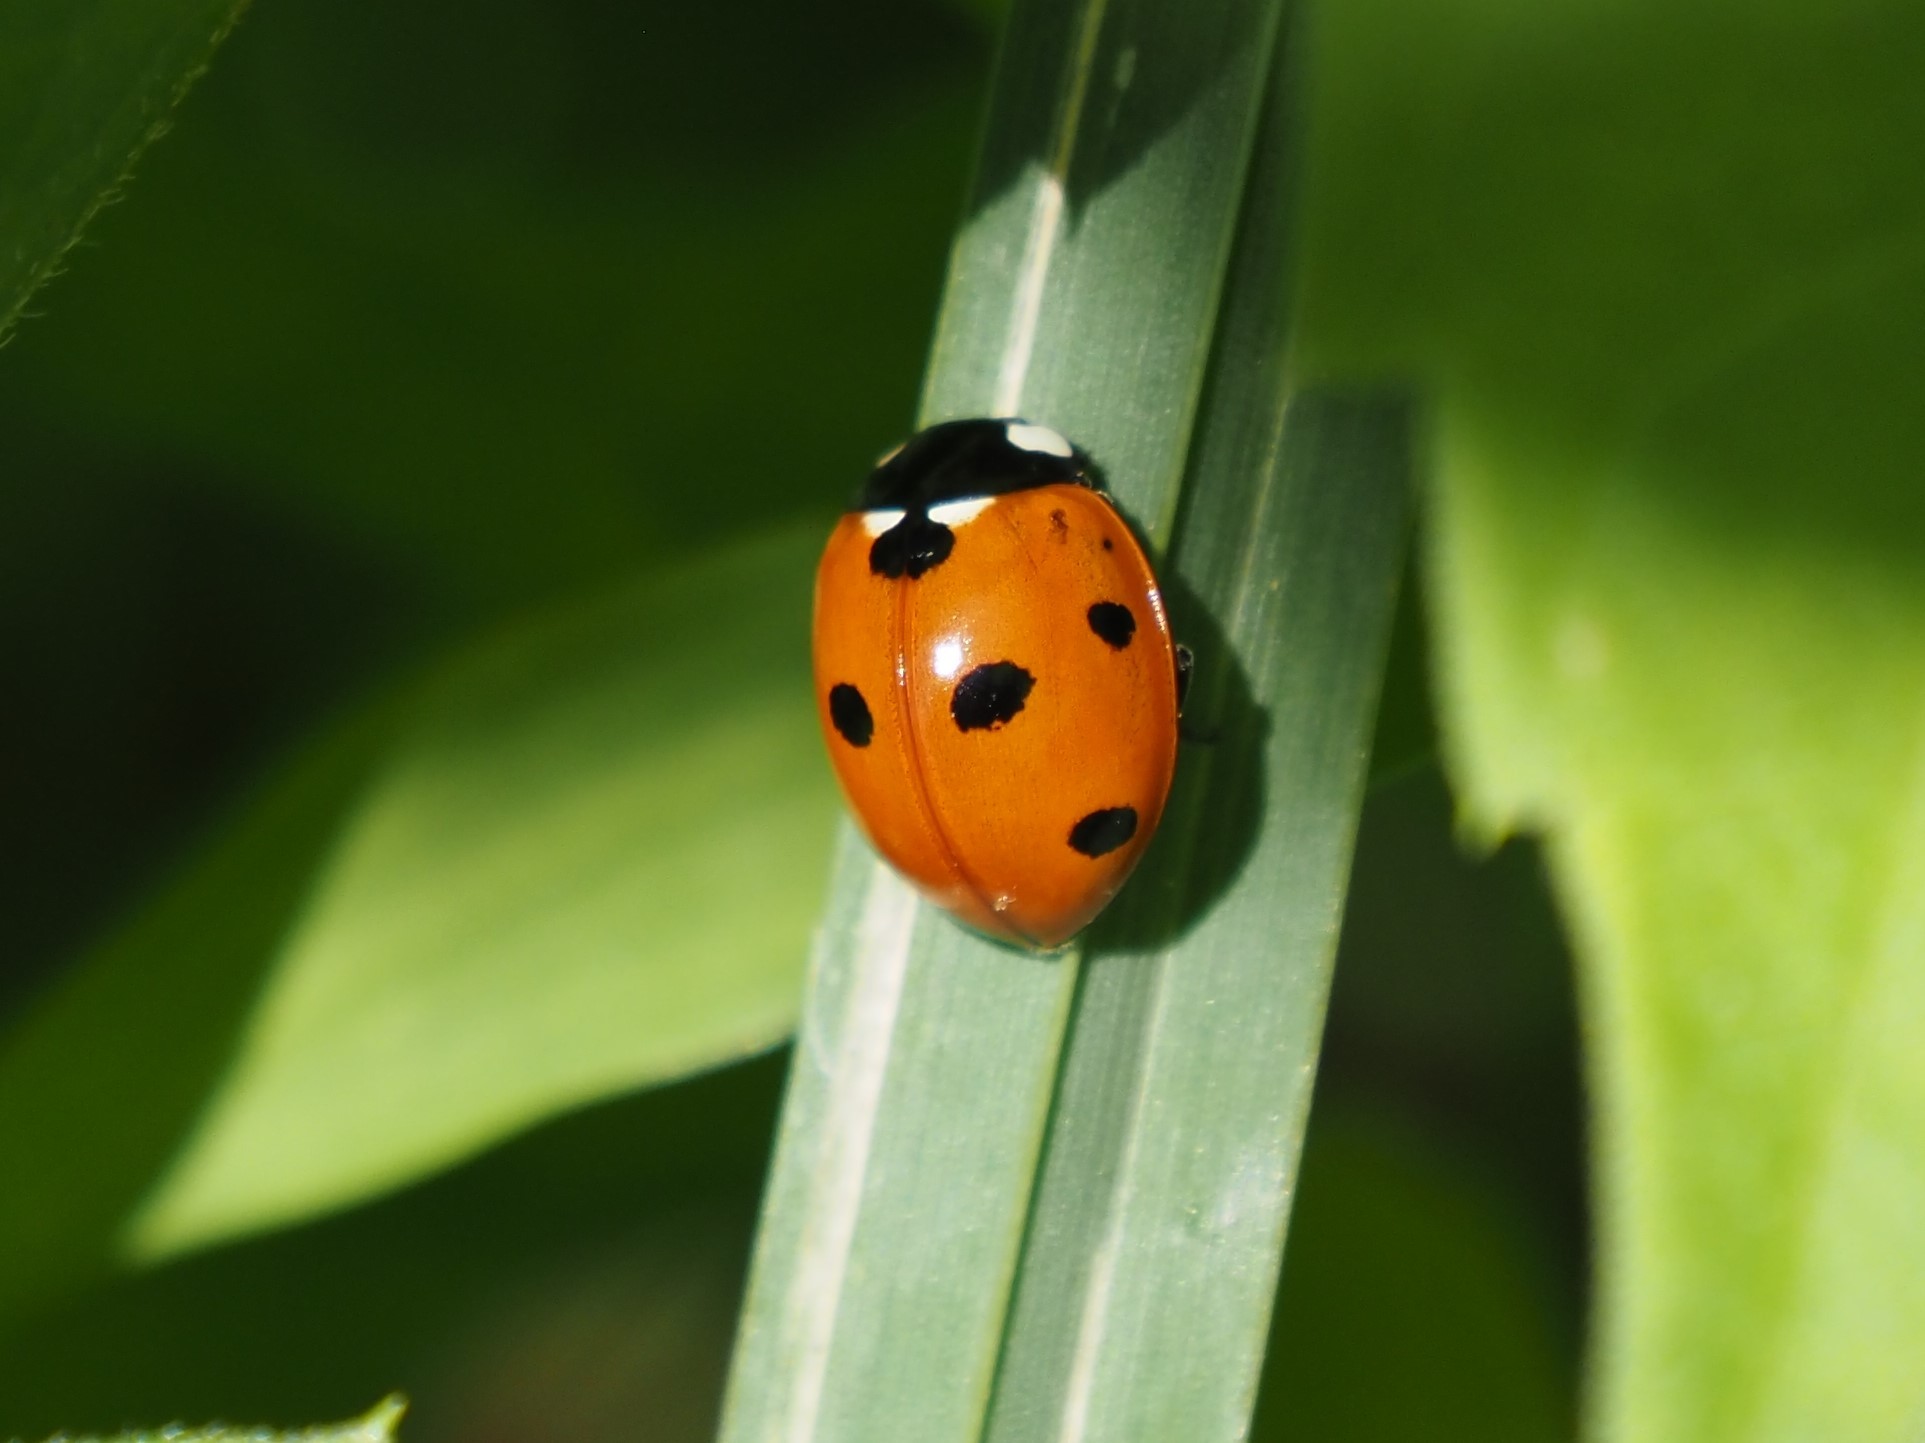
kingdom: Animalia
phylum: Arthropoda
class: Insecta
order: Coleoptera
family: Coccinellidae
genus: Coccinella
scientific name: Coccinella septempunctata
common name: Sevenspotted lady beetle
